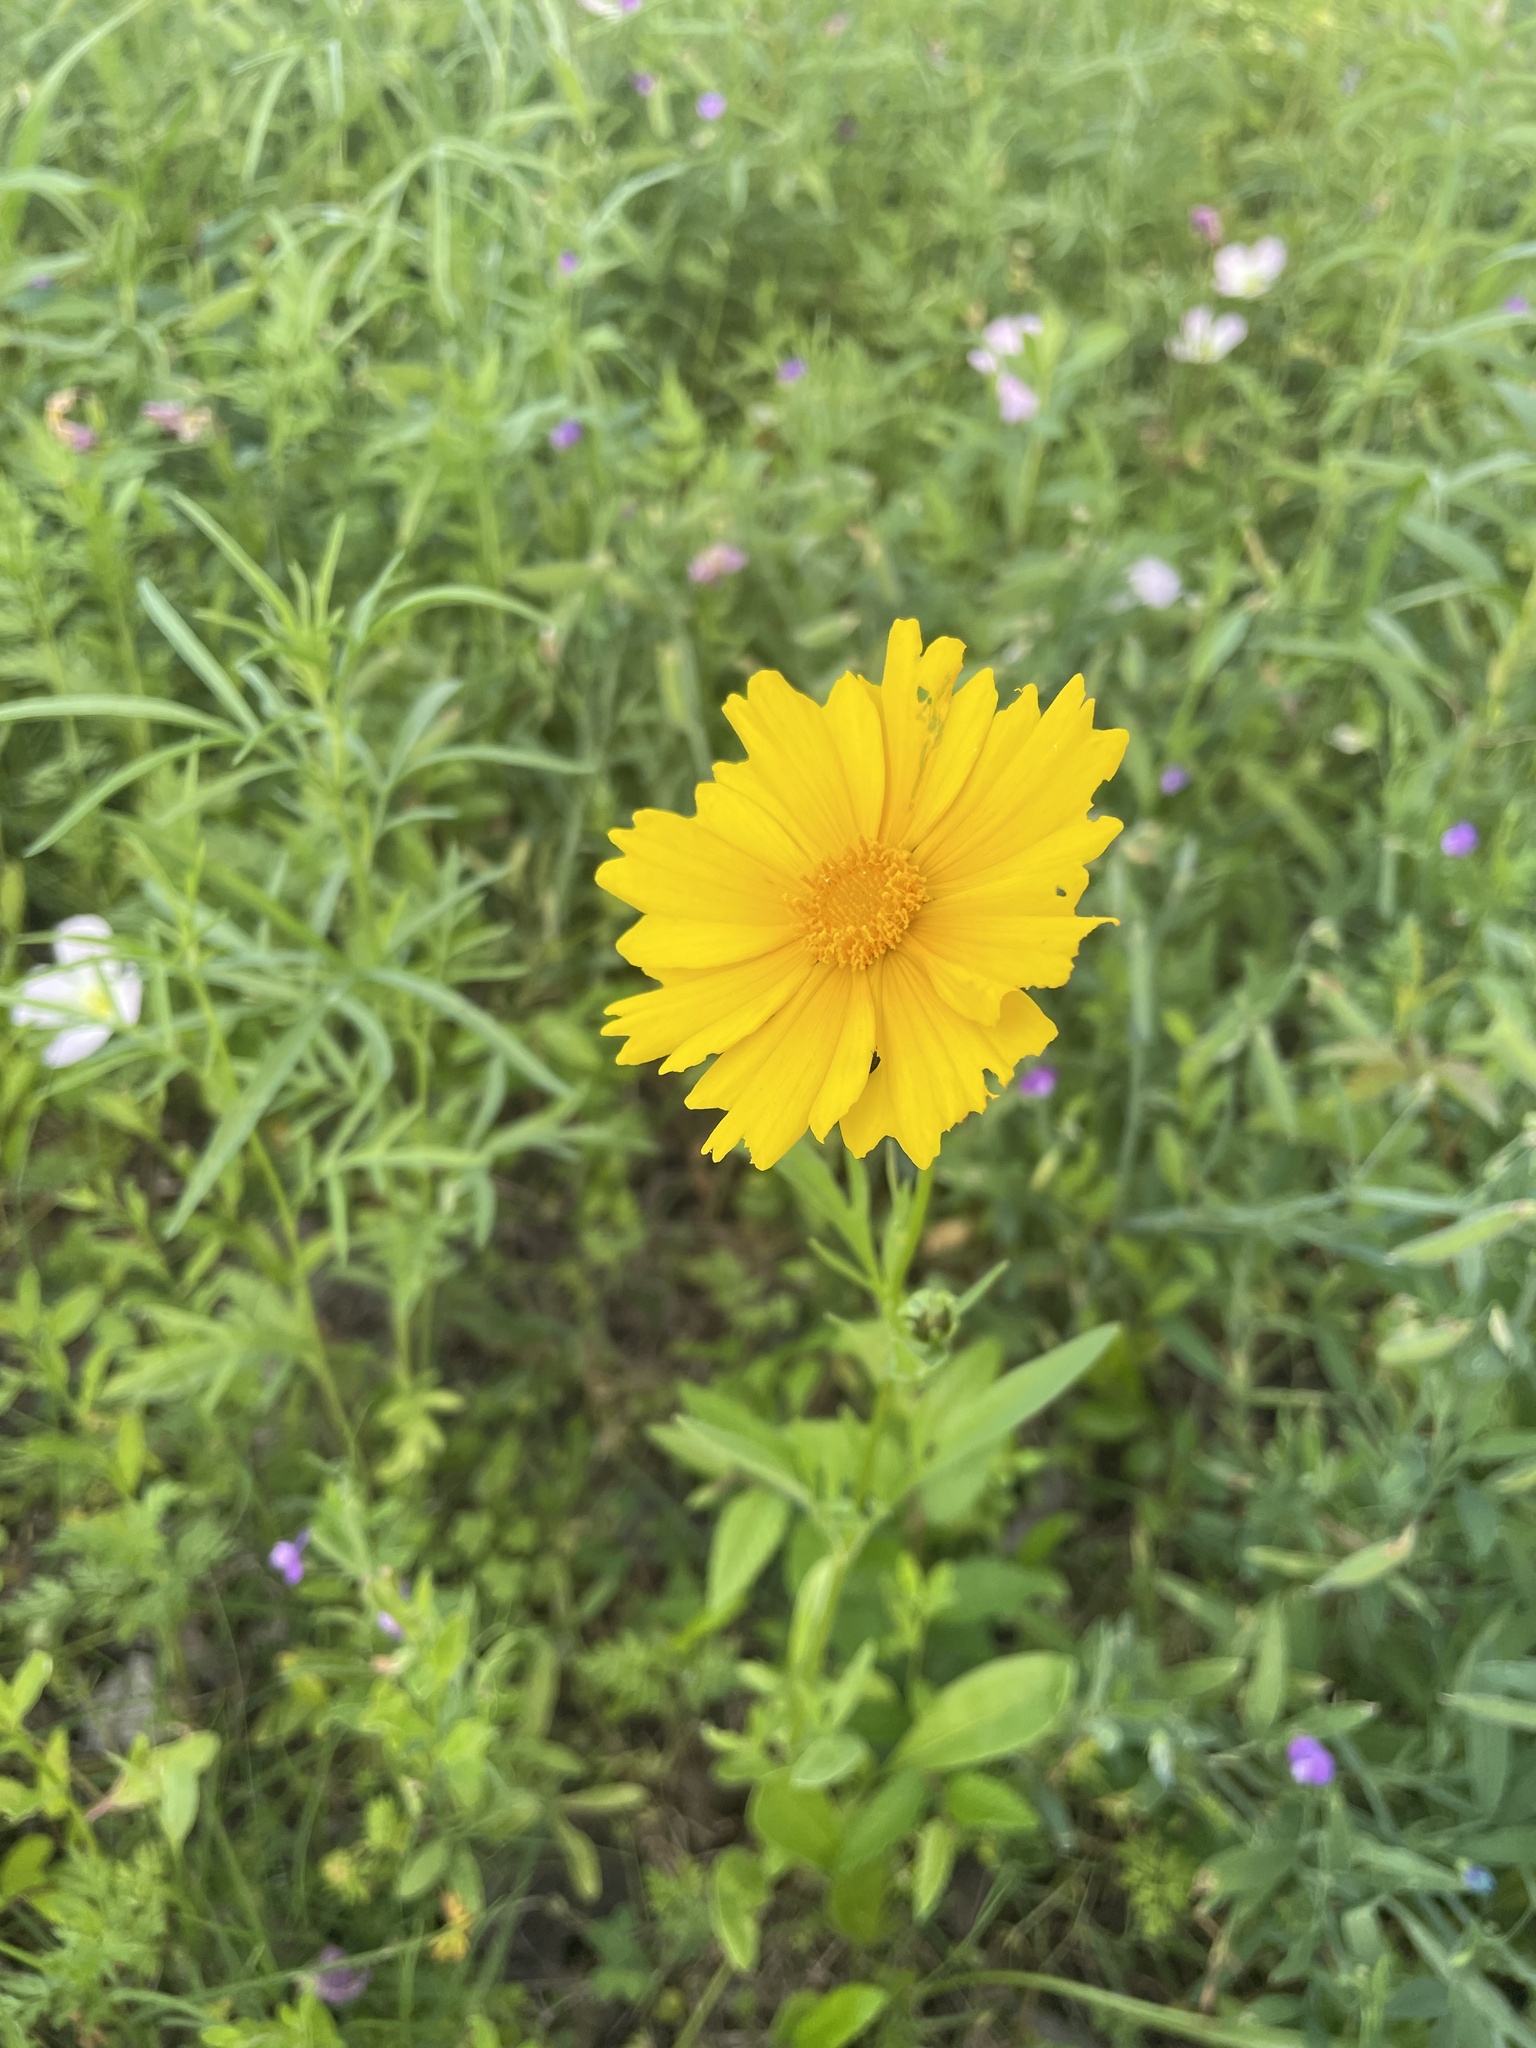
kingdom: Plantae
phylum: Tracheophyta
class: Magnoliopsida
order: Asterales
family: Asteraceae
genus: Coreopsis
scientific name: Coreopsis lanceolata
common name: Garden coreopsis
